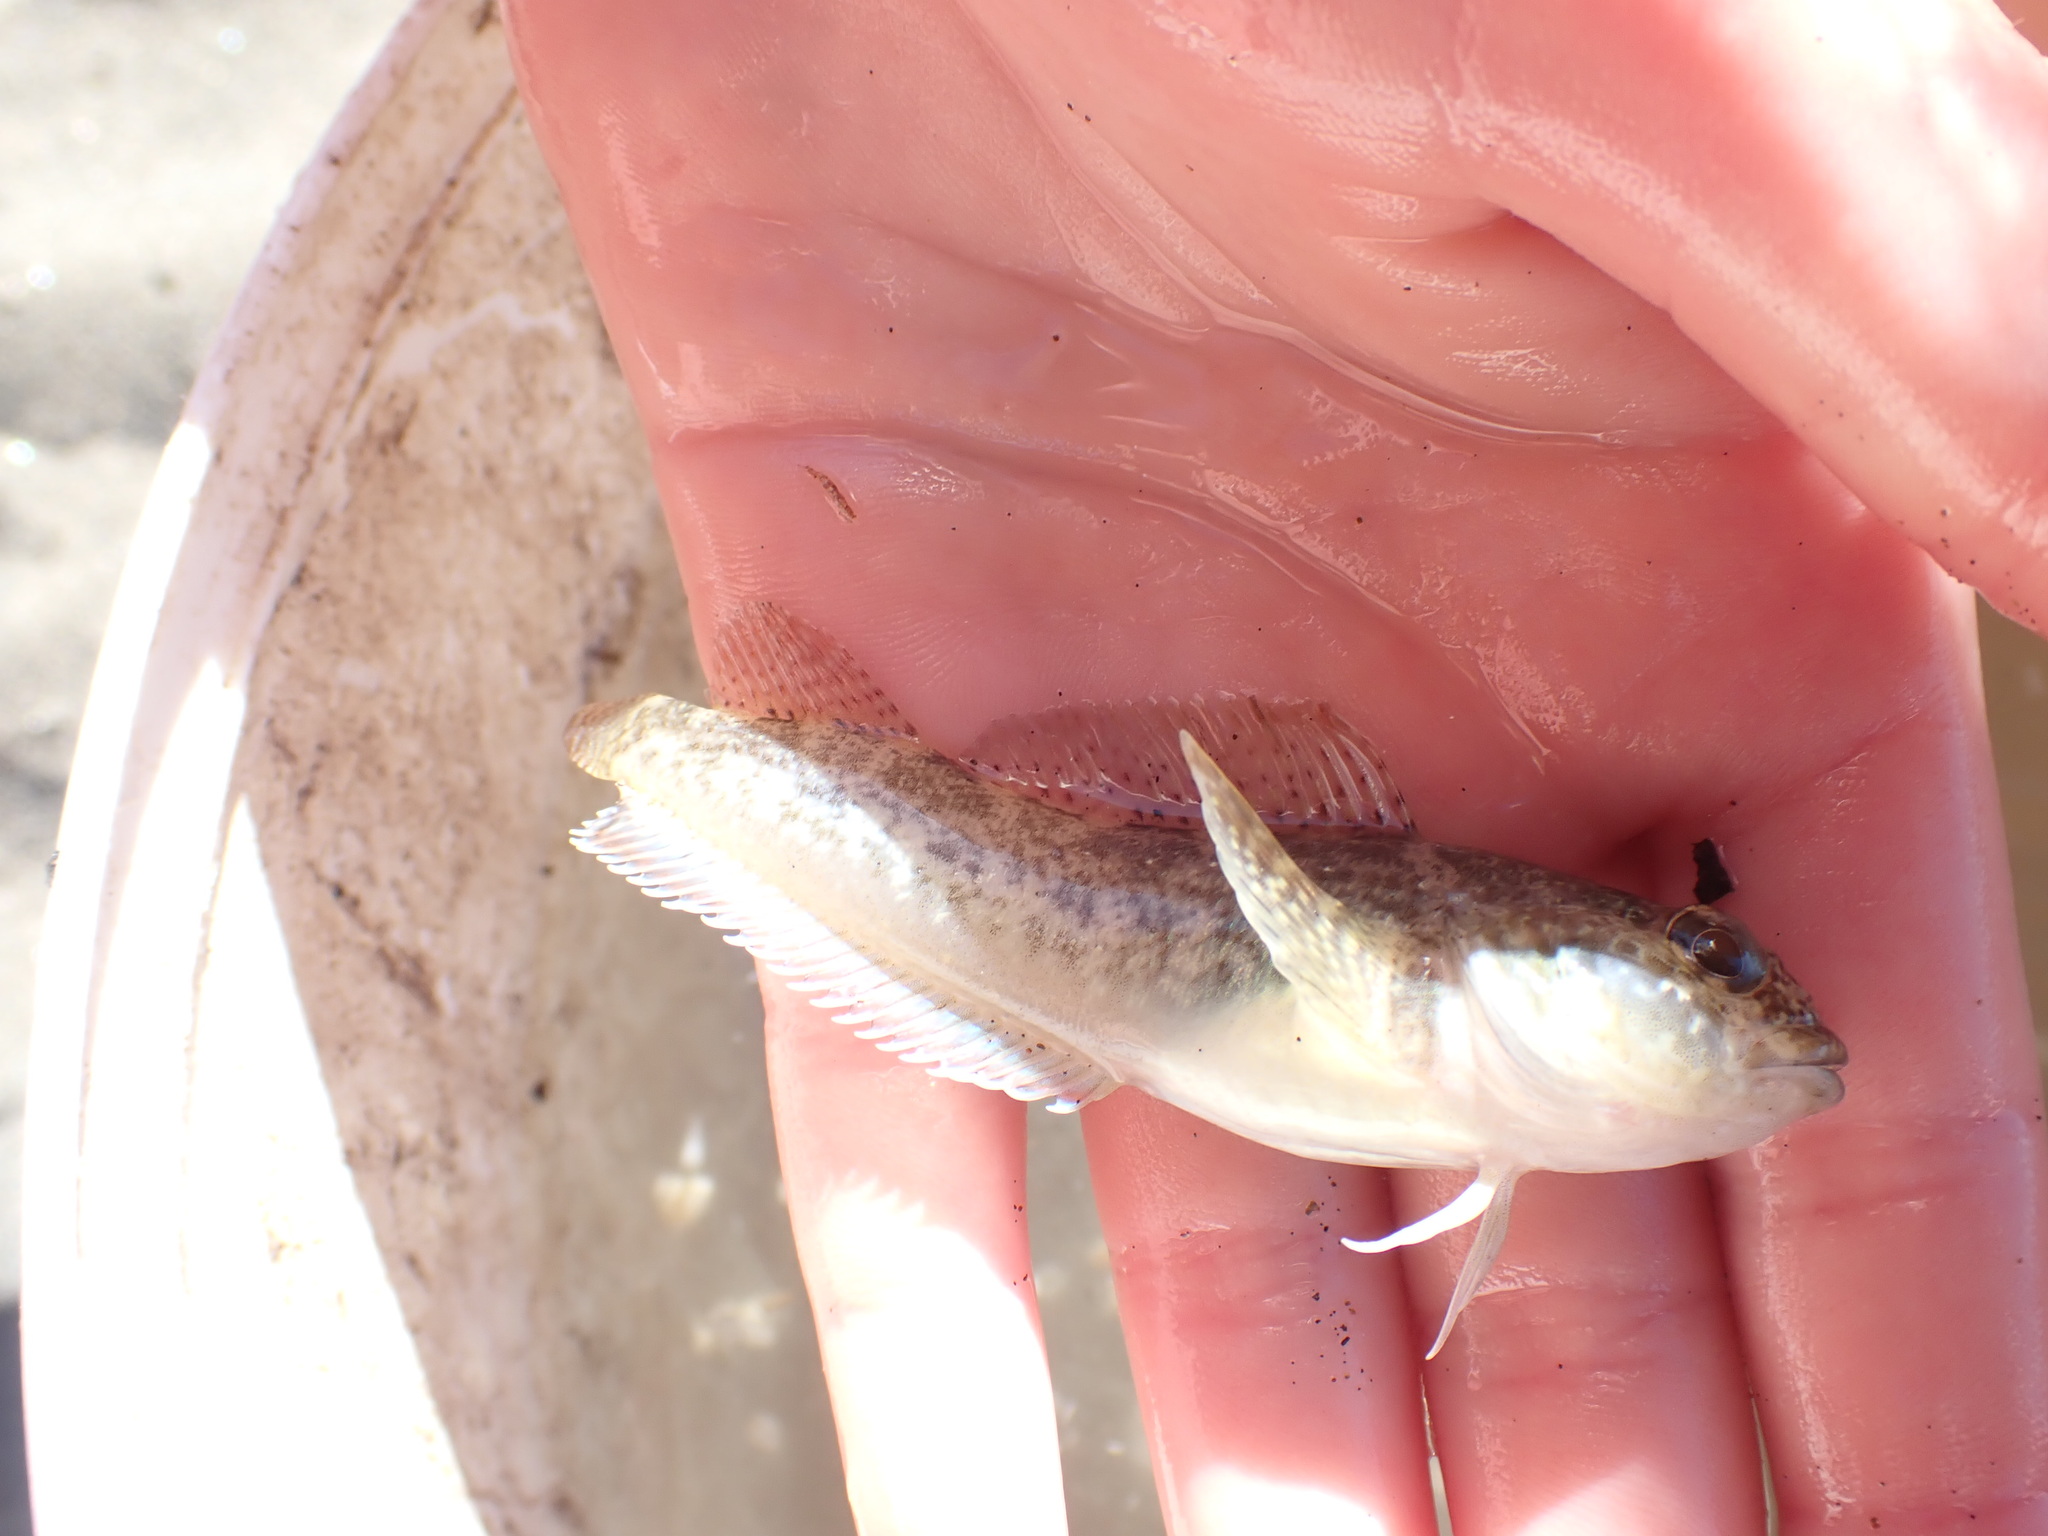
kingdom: Animalia
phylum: Chordata
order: Perciformes
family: Tripterygiidae
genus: Forsterygion
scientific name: Forsterygion capito
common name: Spotted robust triplefin
